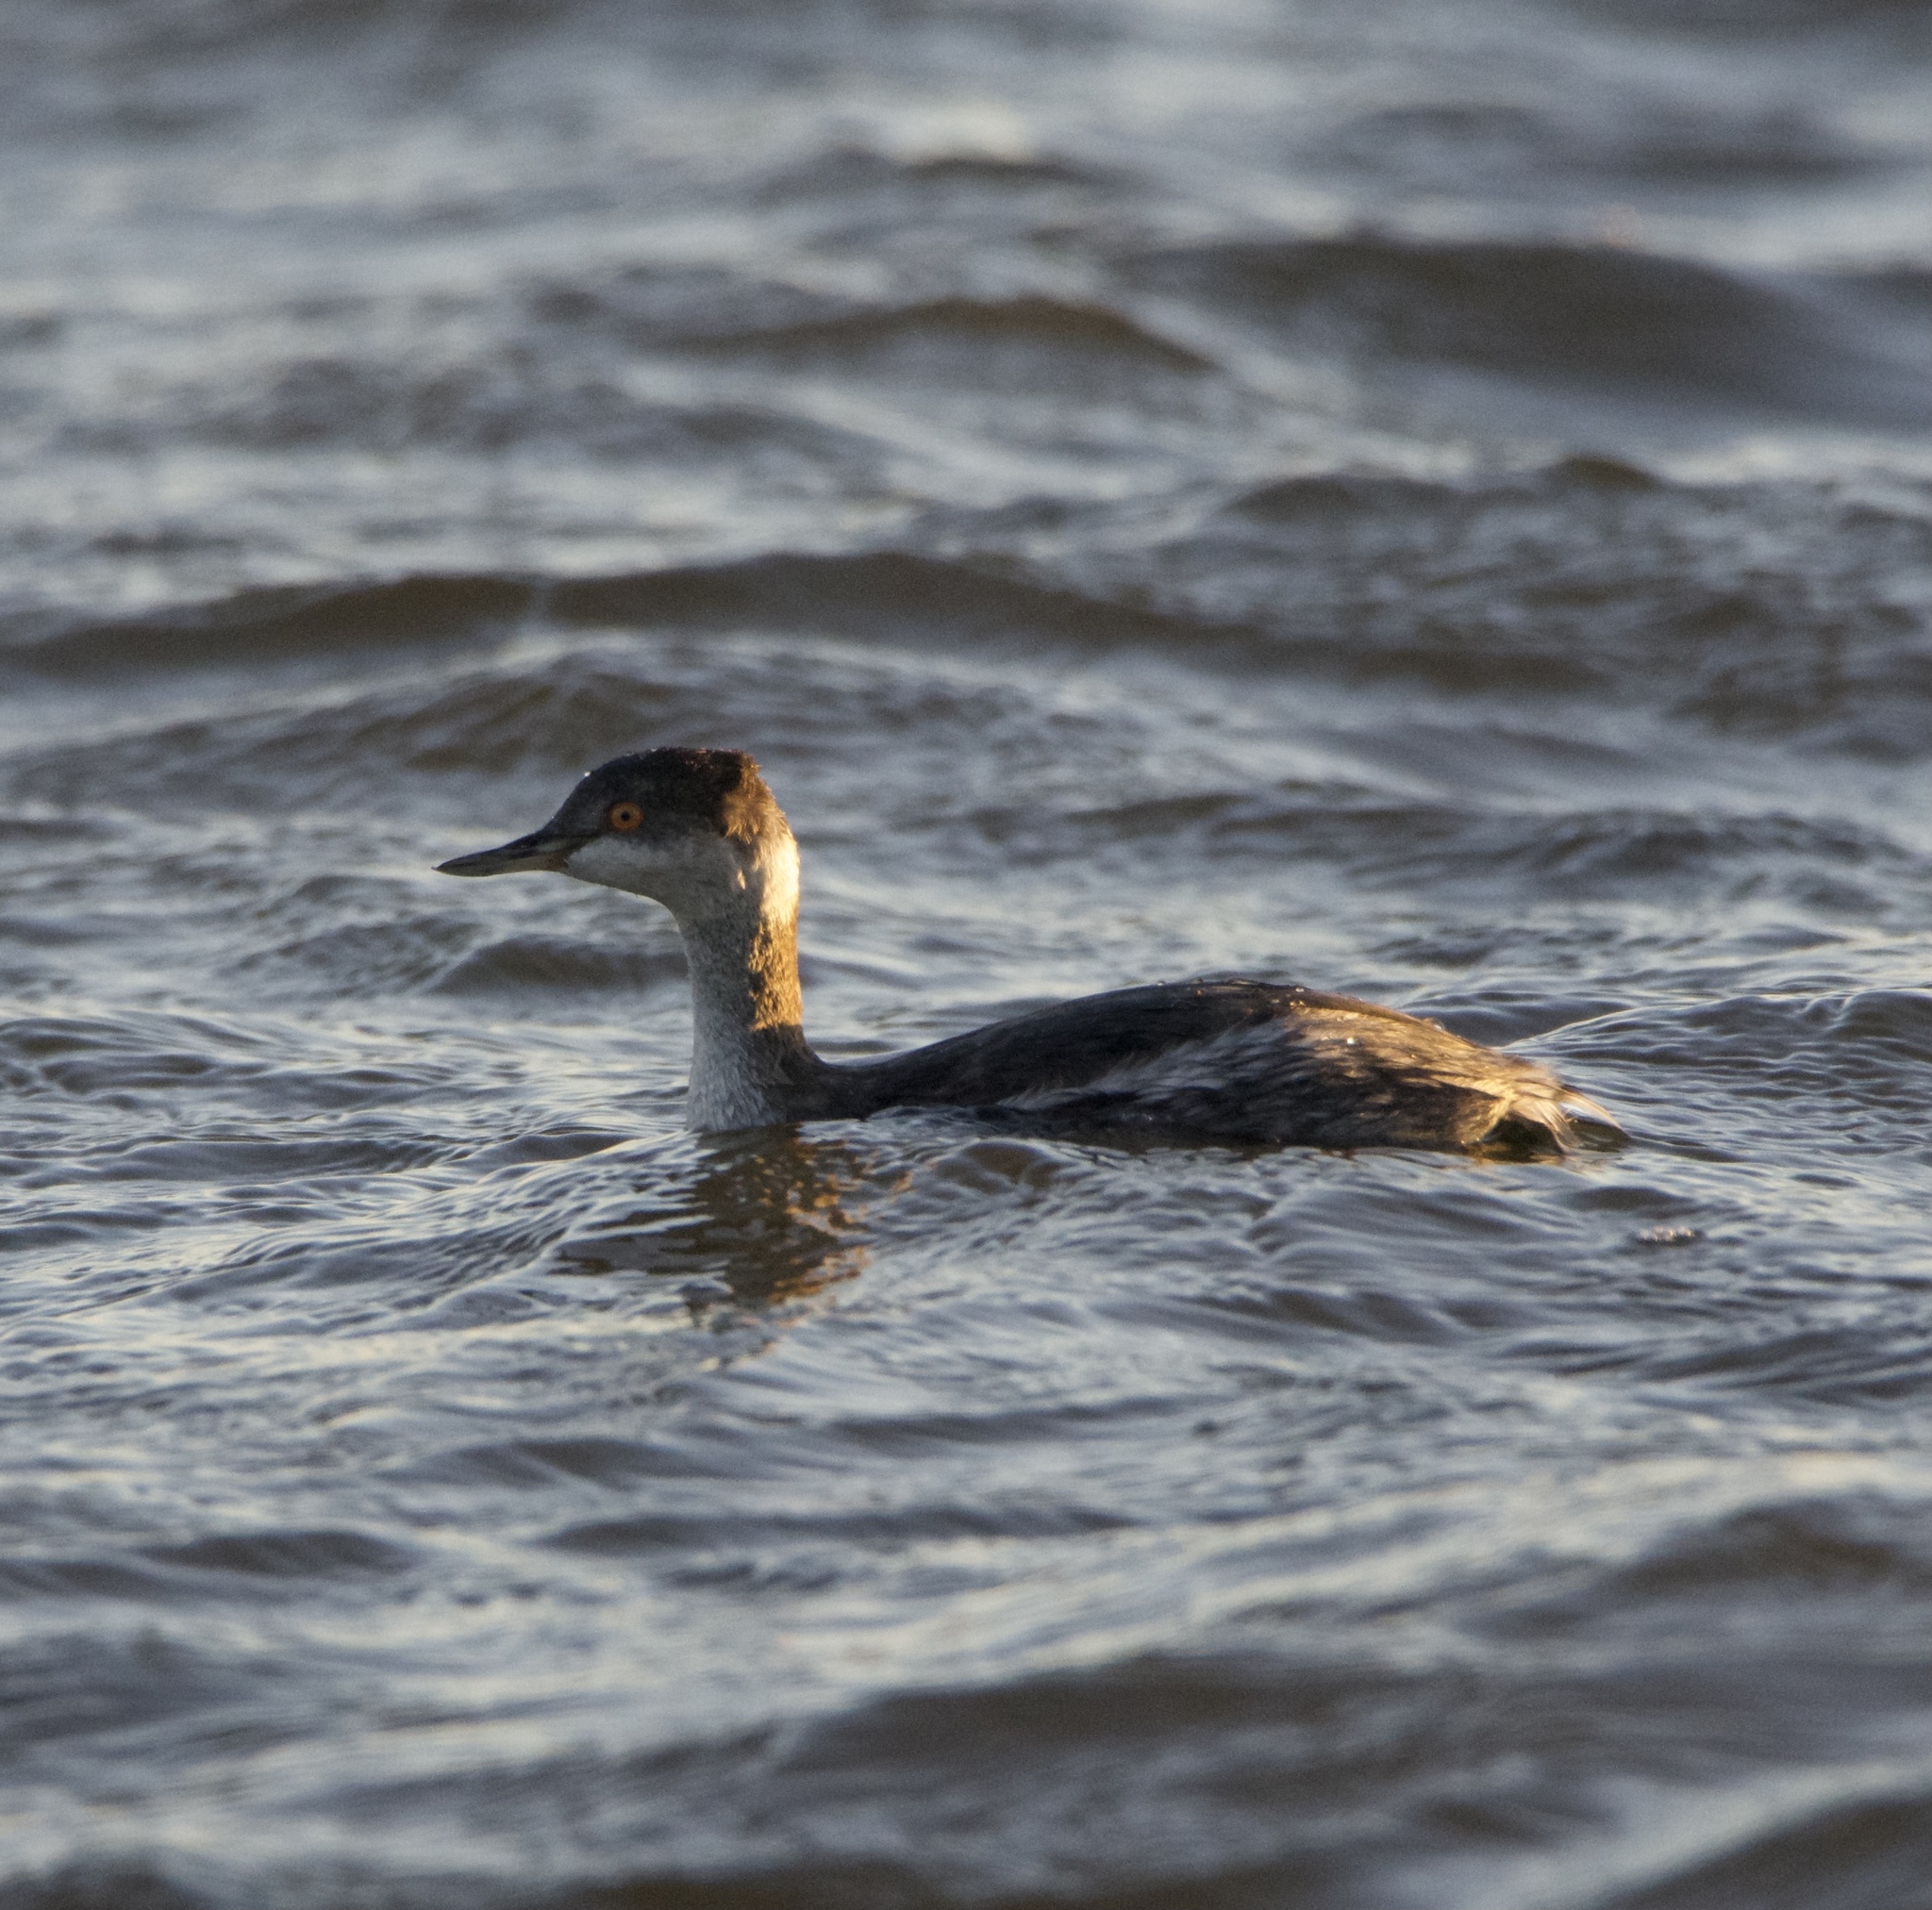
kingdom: Animalia
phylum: Chordata
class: Aves
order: Podicipediformes
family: Podicipedidae
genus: Podiceps
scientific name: Podiceps auritus
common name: Horned grebe
